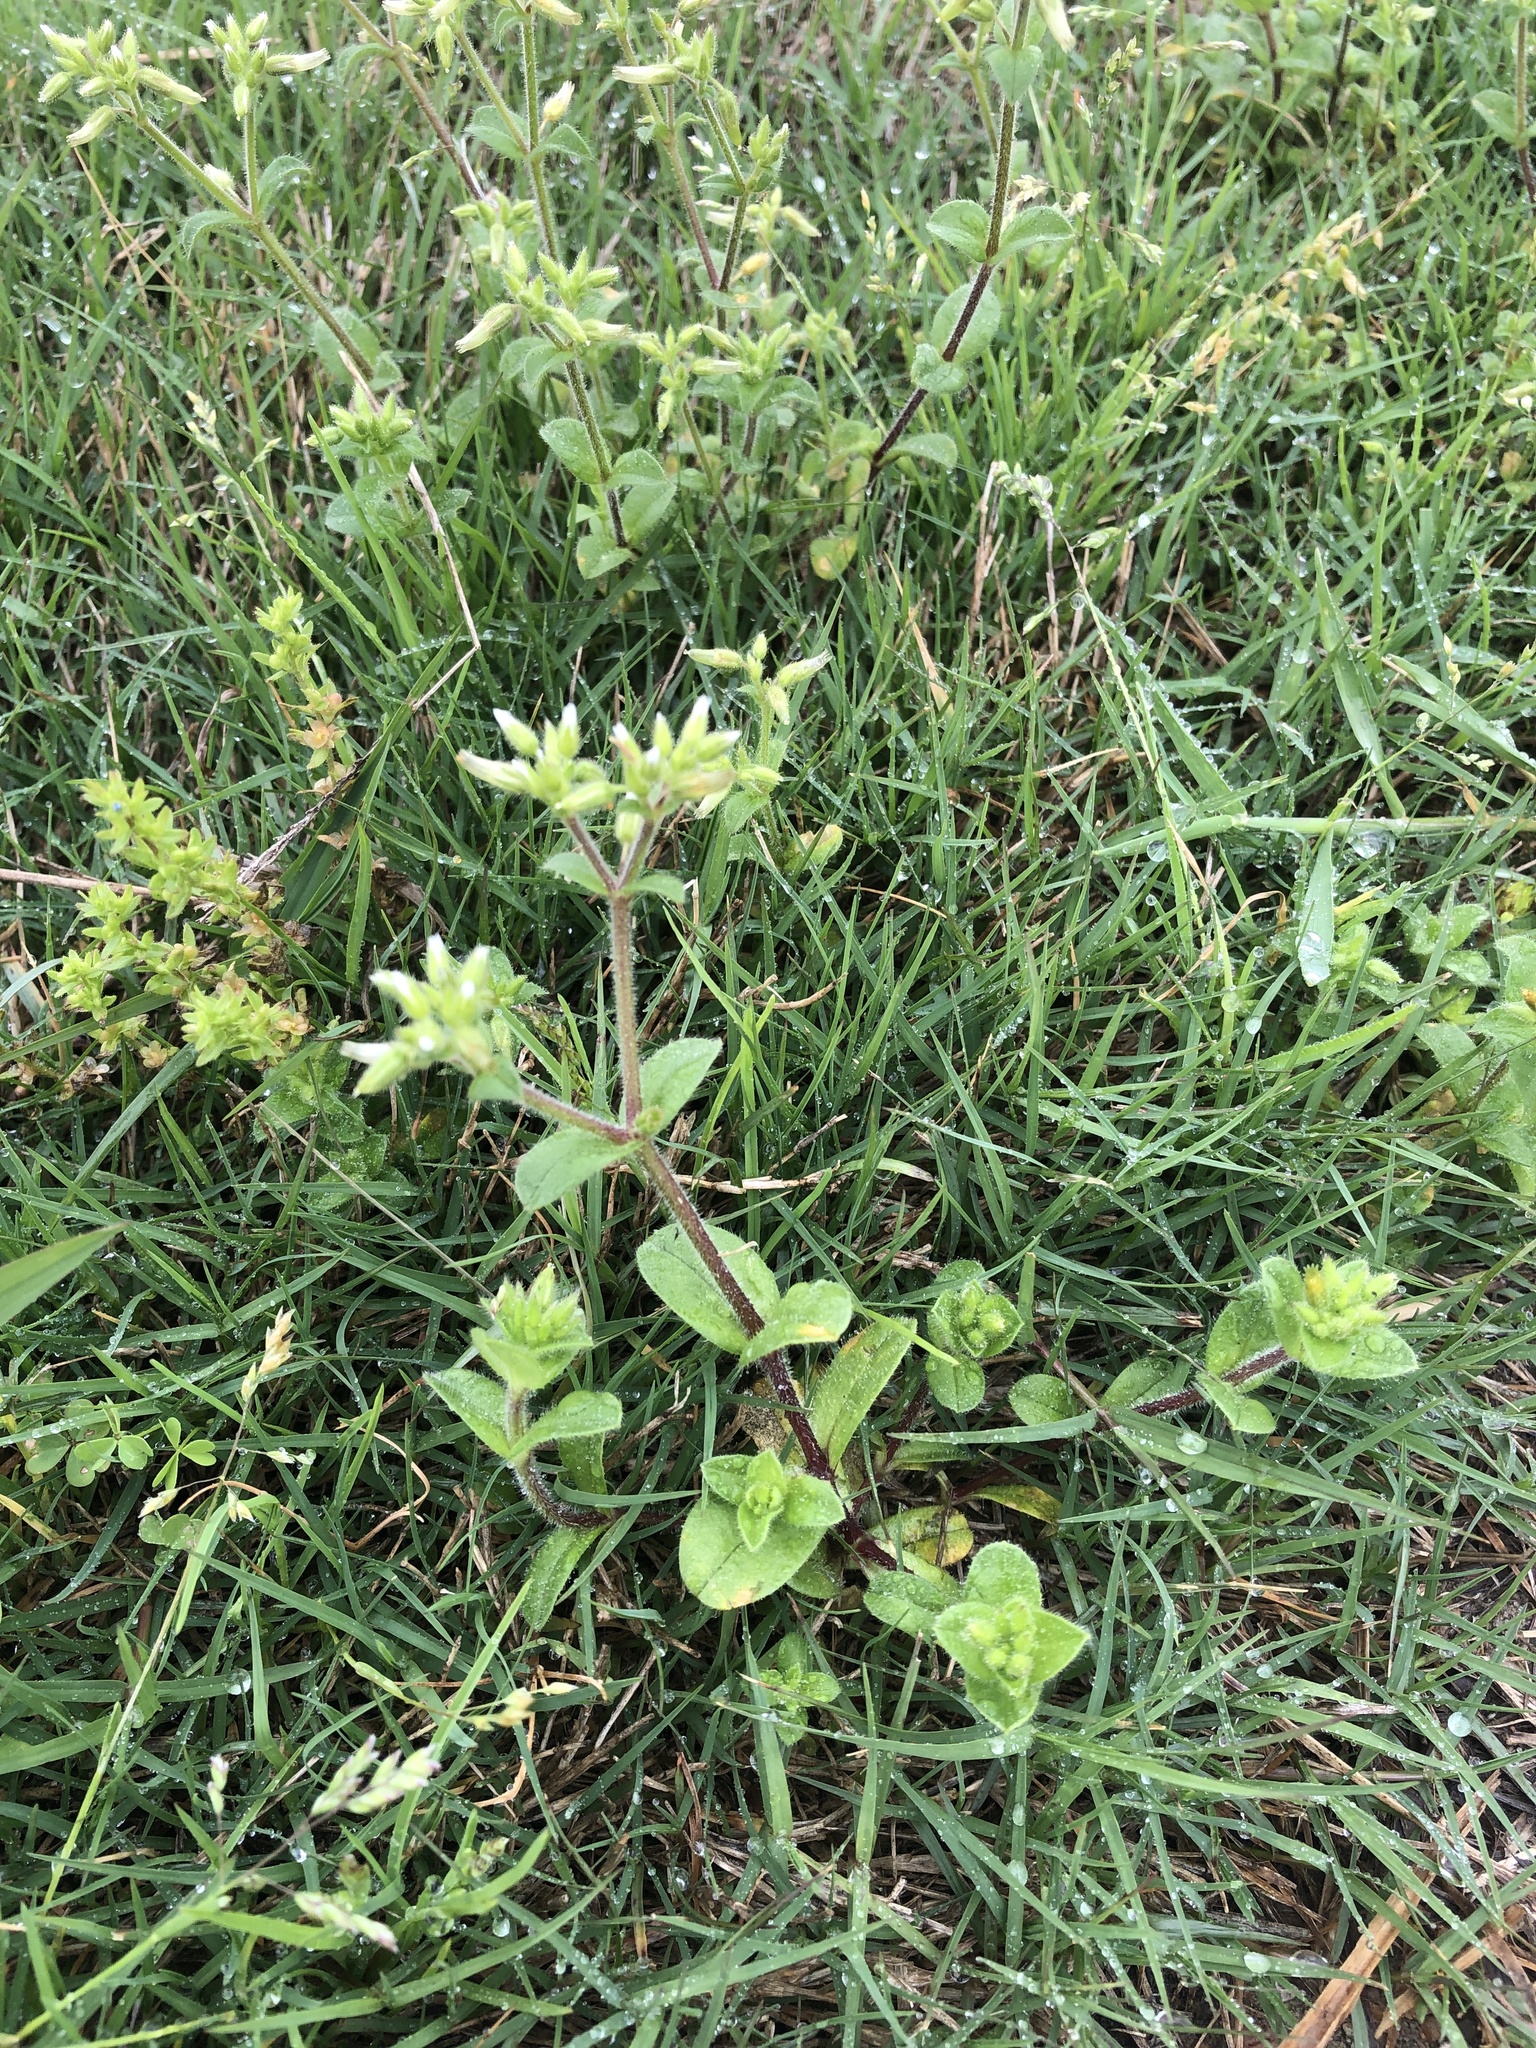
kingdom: Plantae
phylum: Tracheophyta
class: Magnoliopsida
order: Caryophyllales
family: Caryophyllaceae
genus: Cerastium
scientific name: Cerastium glomeratum
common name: Sticky chickweed
